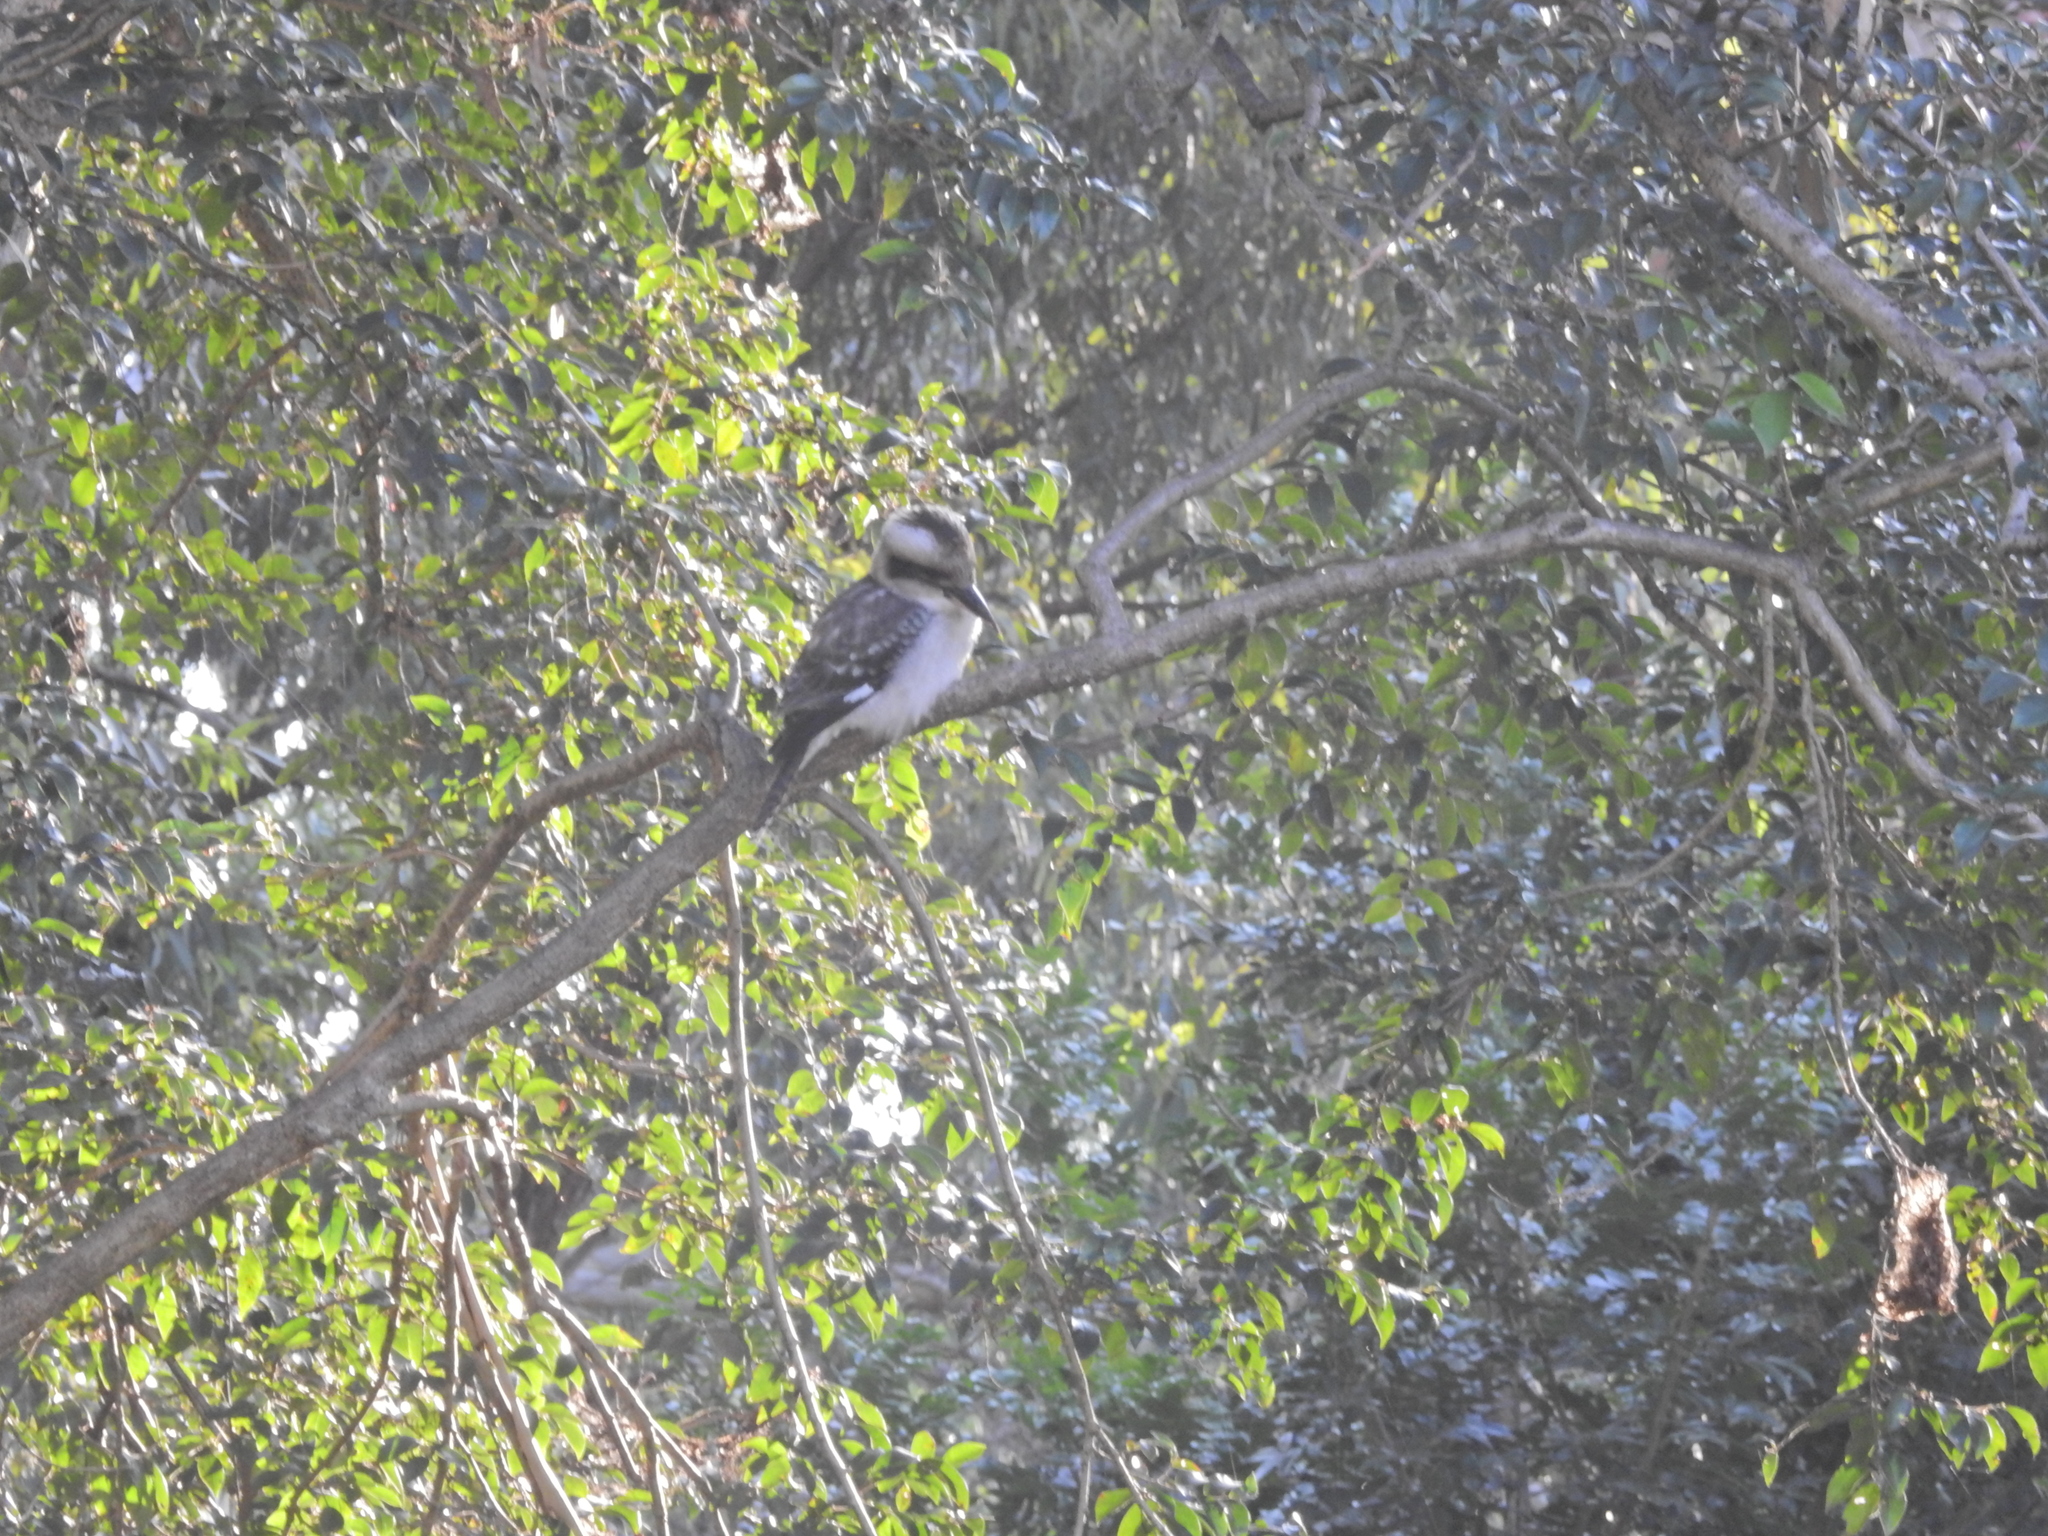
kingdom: Animalia
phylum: Chordata
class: Aves
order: Coraciiformes
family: Alcedinidae
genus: Dacelo
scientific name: Dacelo novaeguineae
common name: Laughing kookaburra
